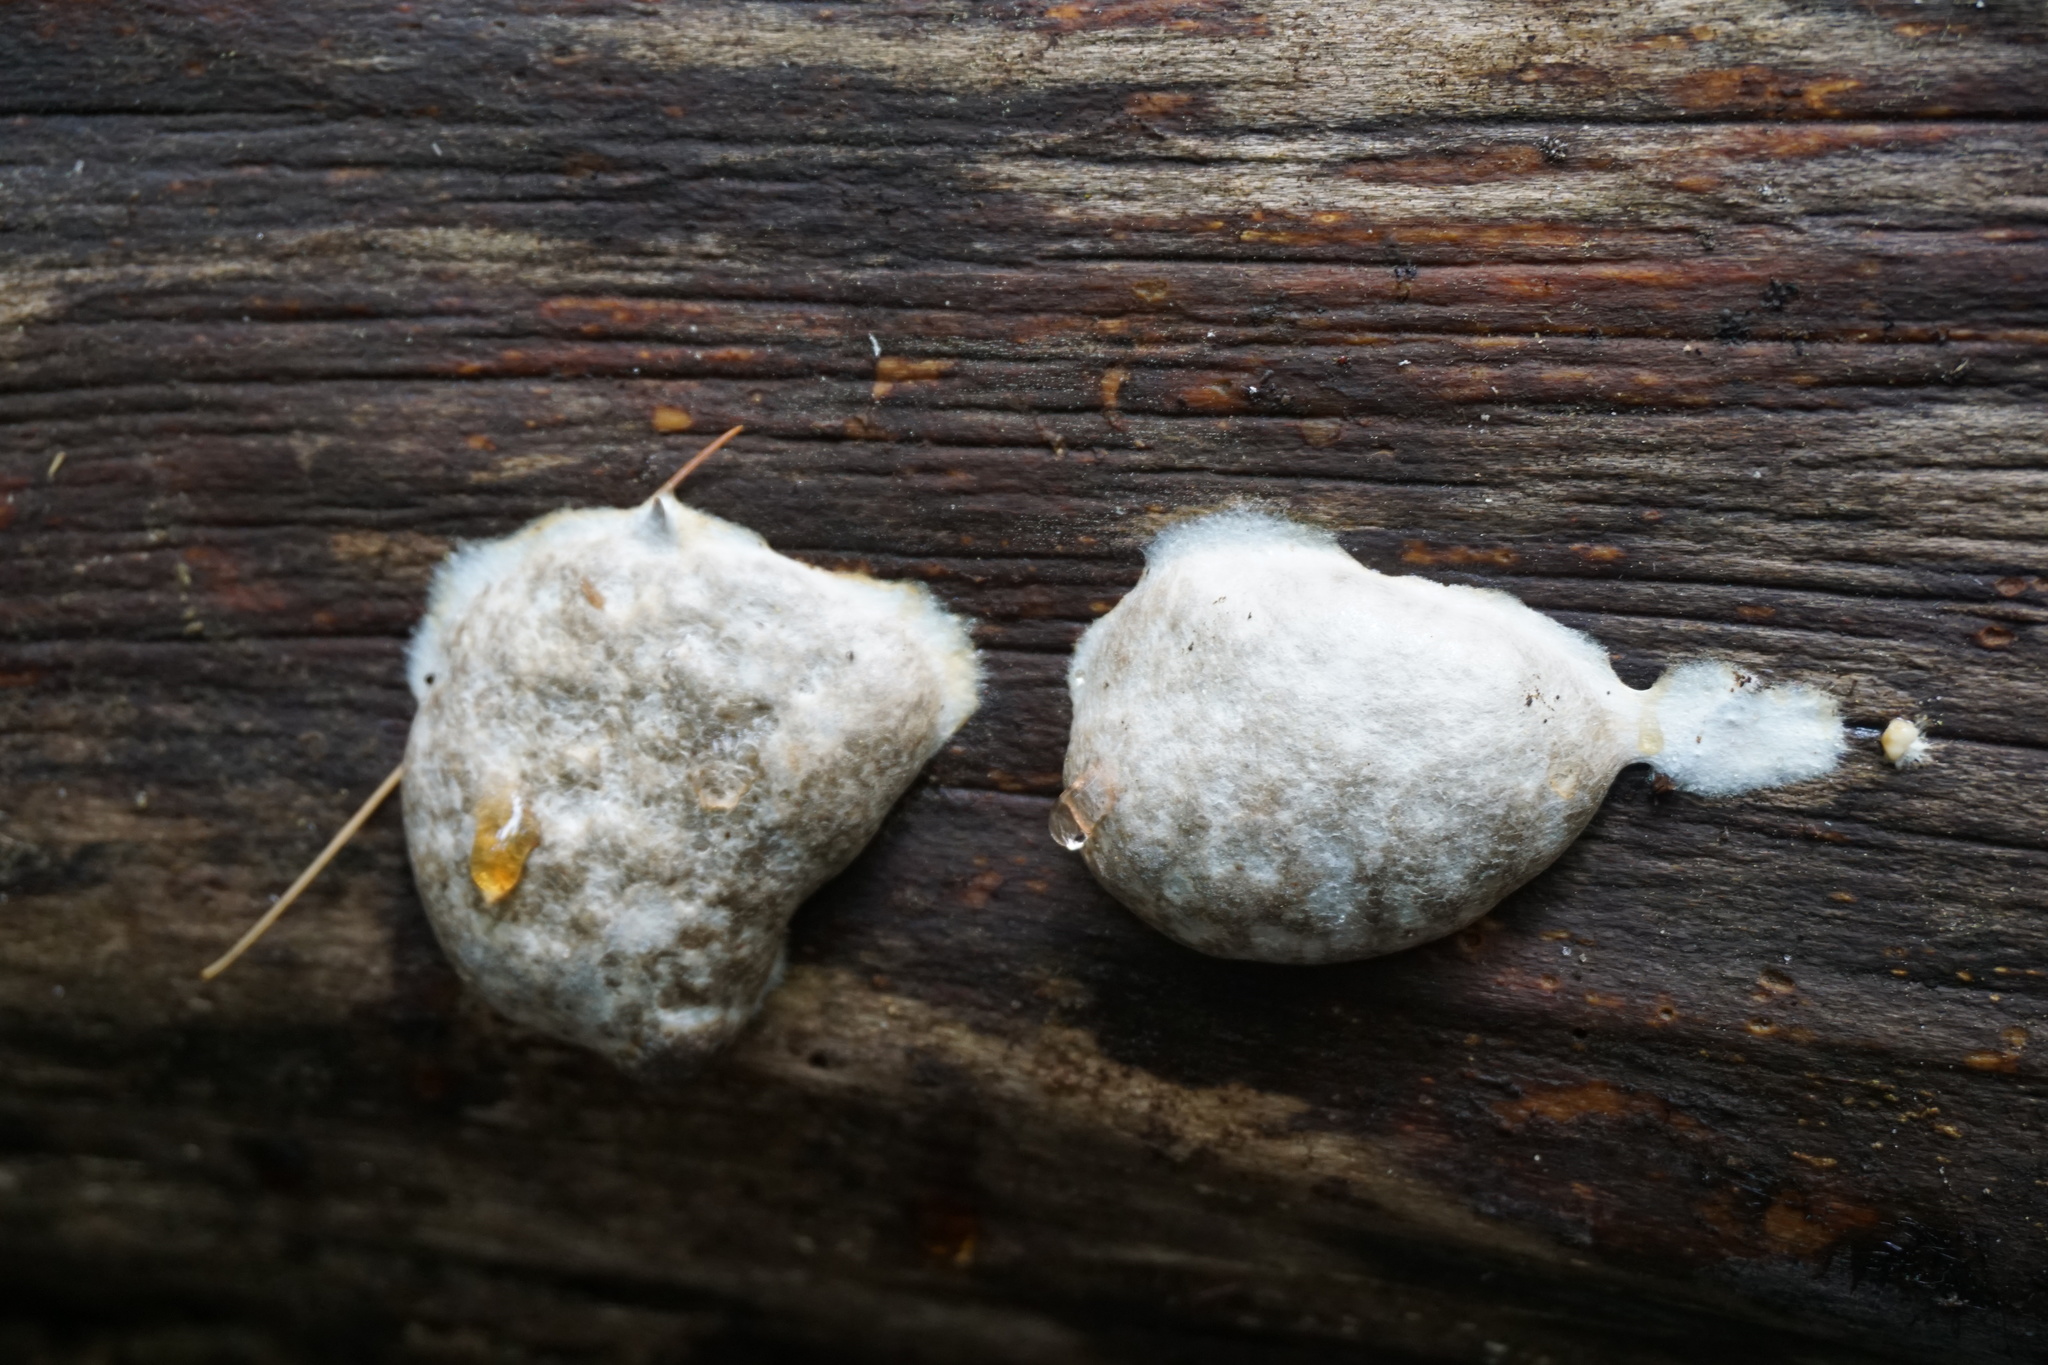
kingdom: Protozoa
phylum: Mycetozoa
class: Myxomycetes
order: Cribrariales
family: Tubiferaceae
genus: Reticularia
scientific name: Reticularia lycoperdon
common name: False puffball
